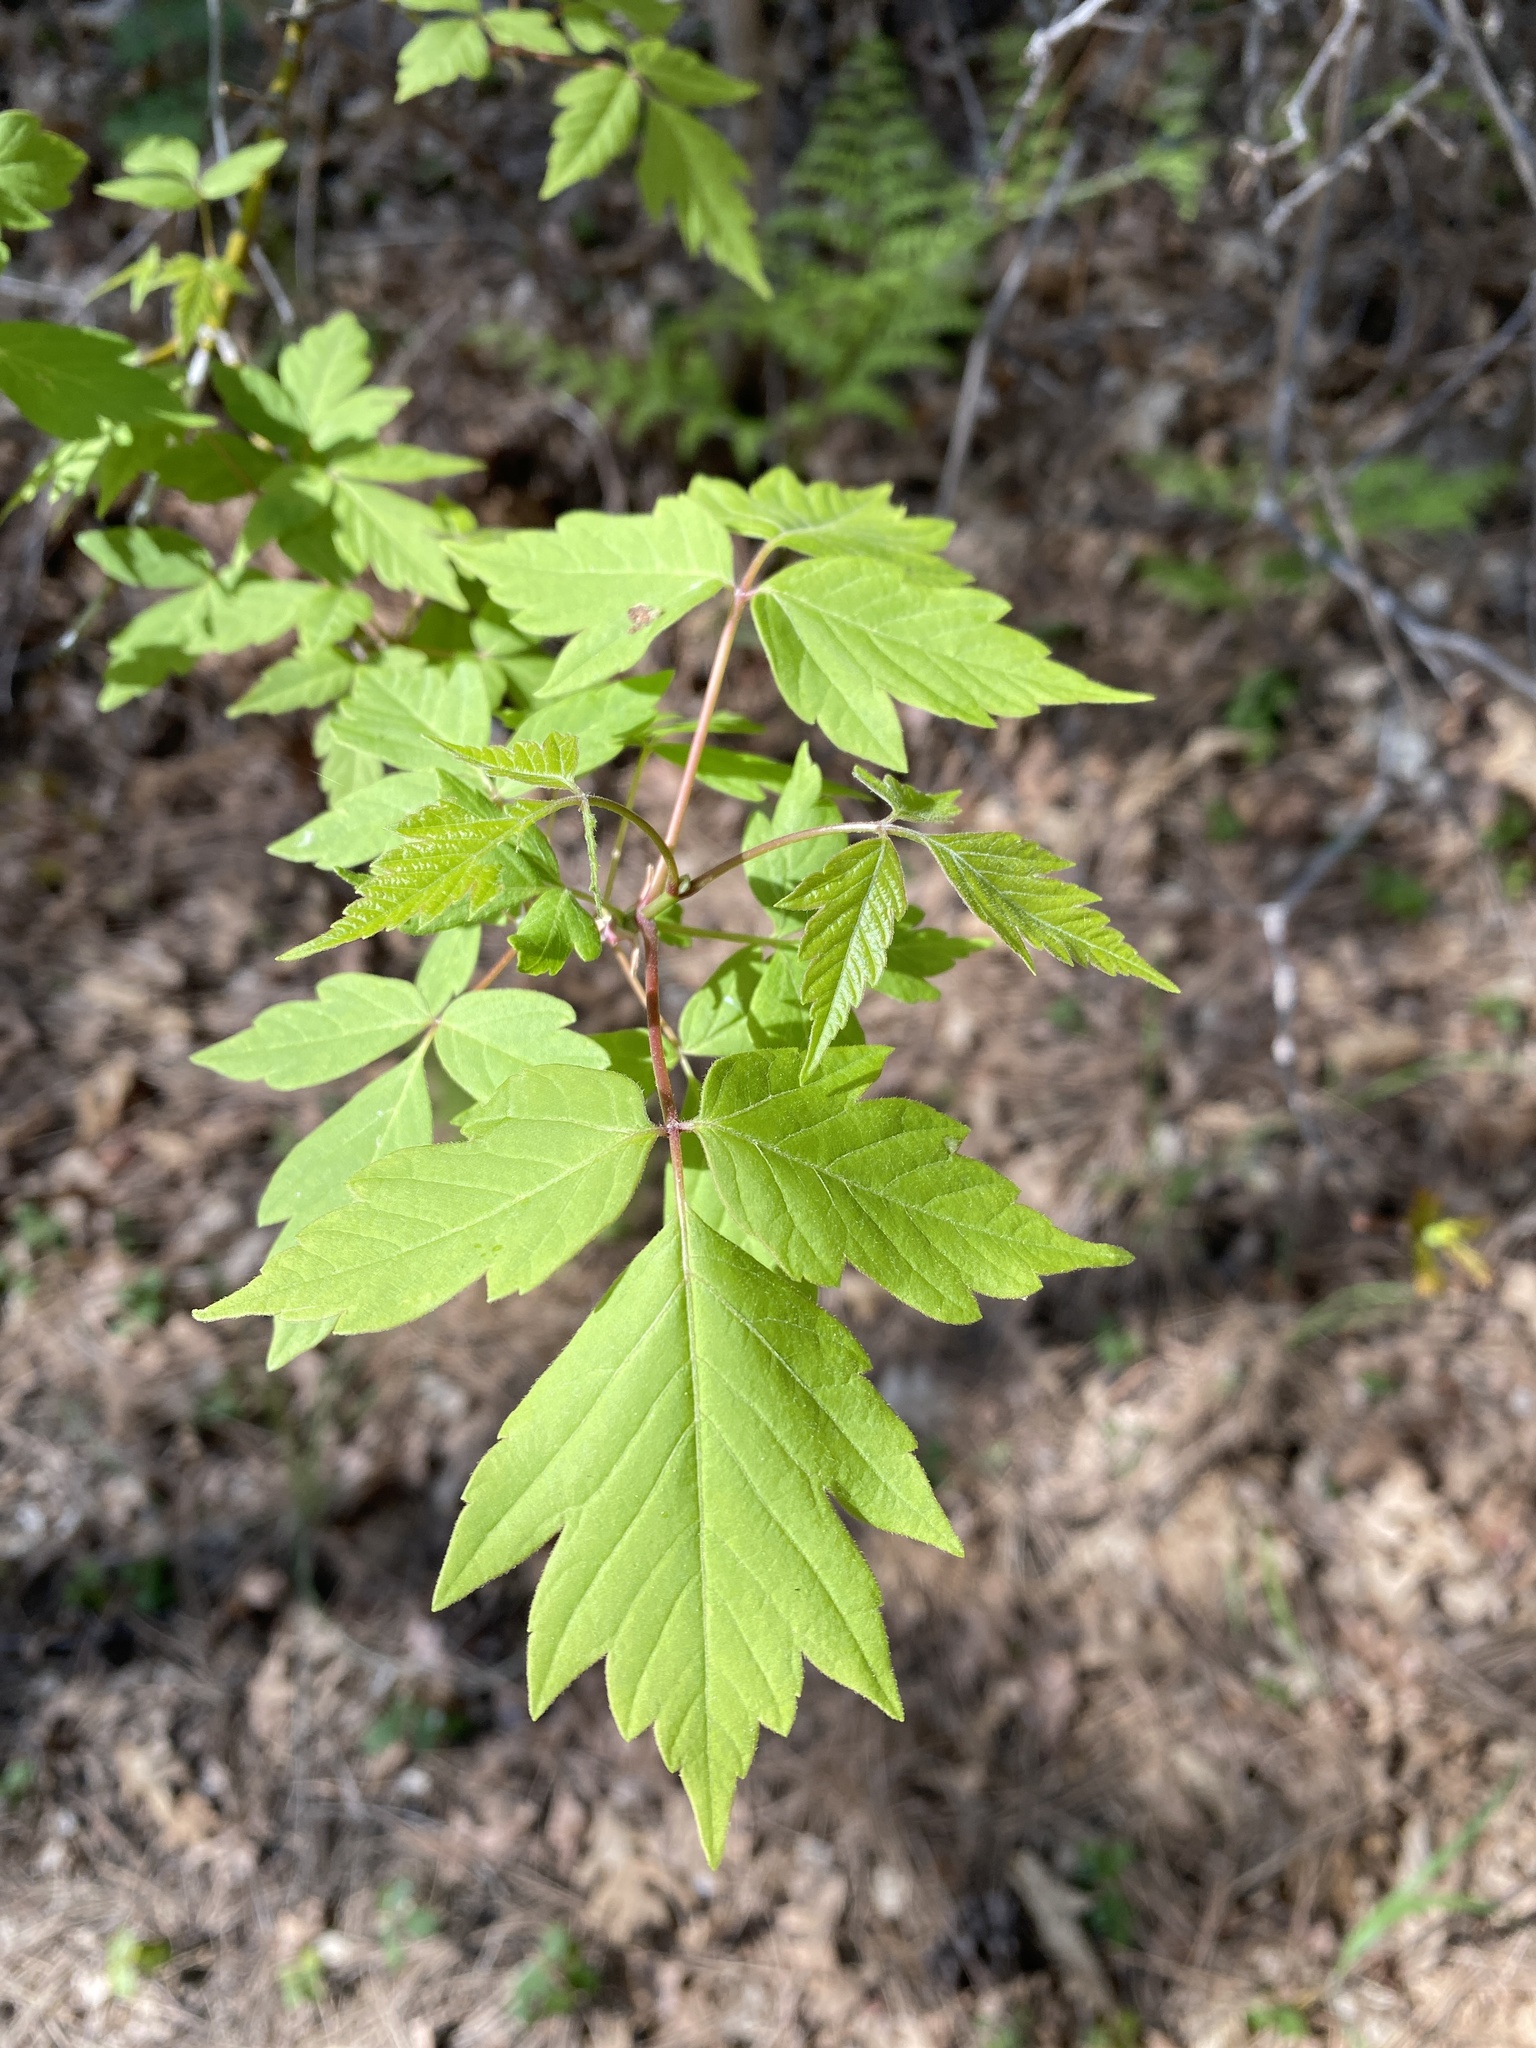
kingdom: Plantae
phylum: Tracheophyta
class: Magnoliopsida
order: Sapindales
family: Sapindaceae
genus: Acer
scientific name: Acer negundo
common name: Ashleaf maple
